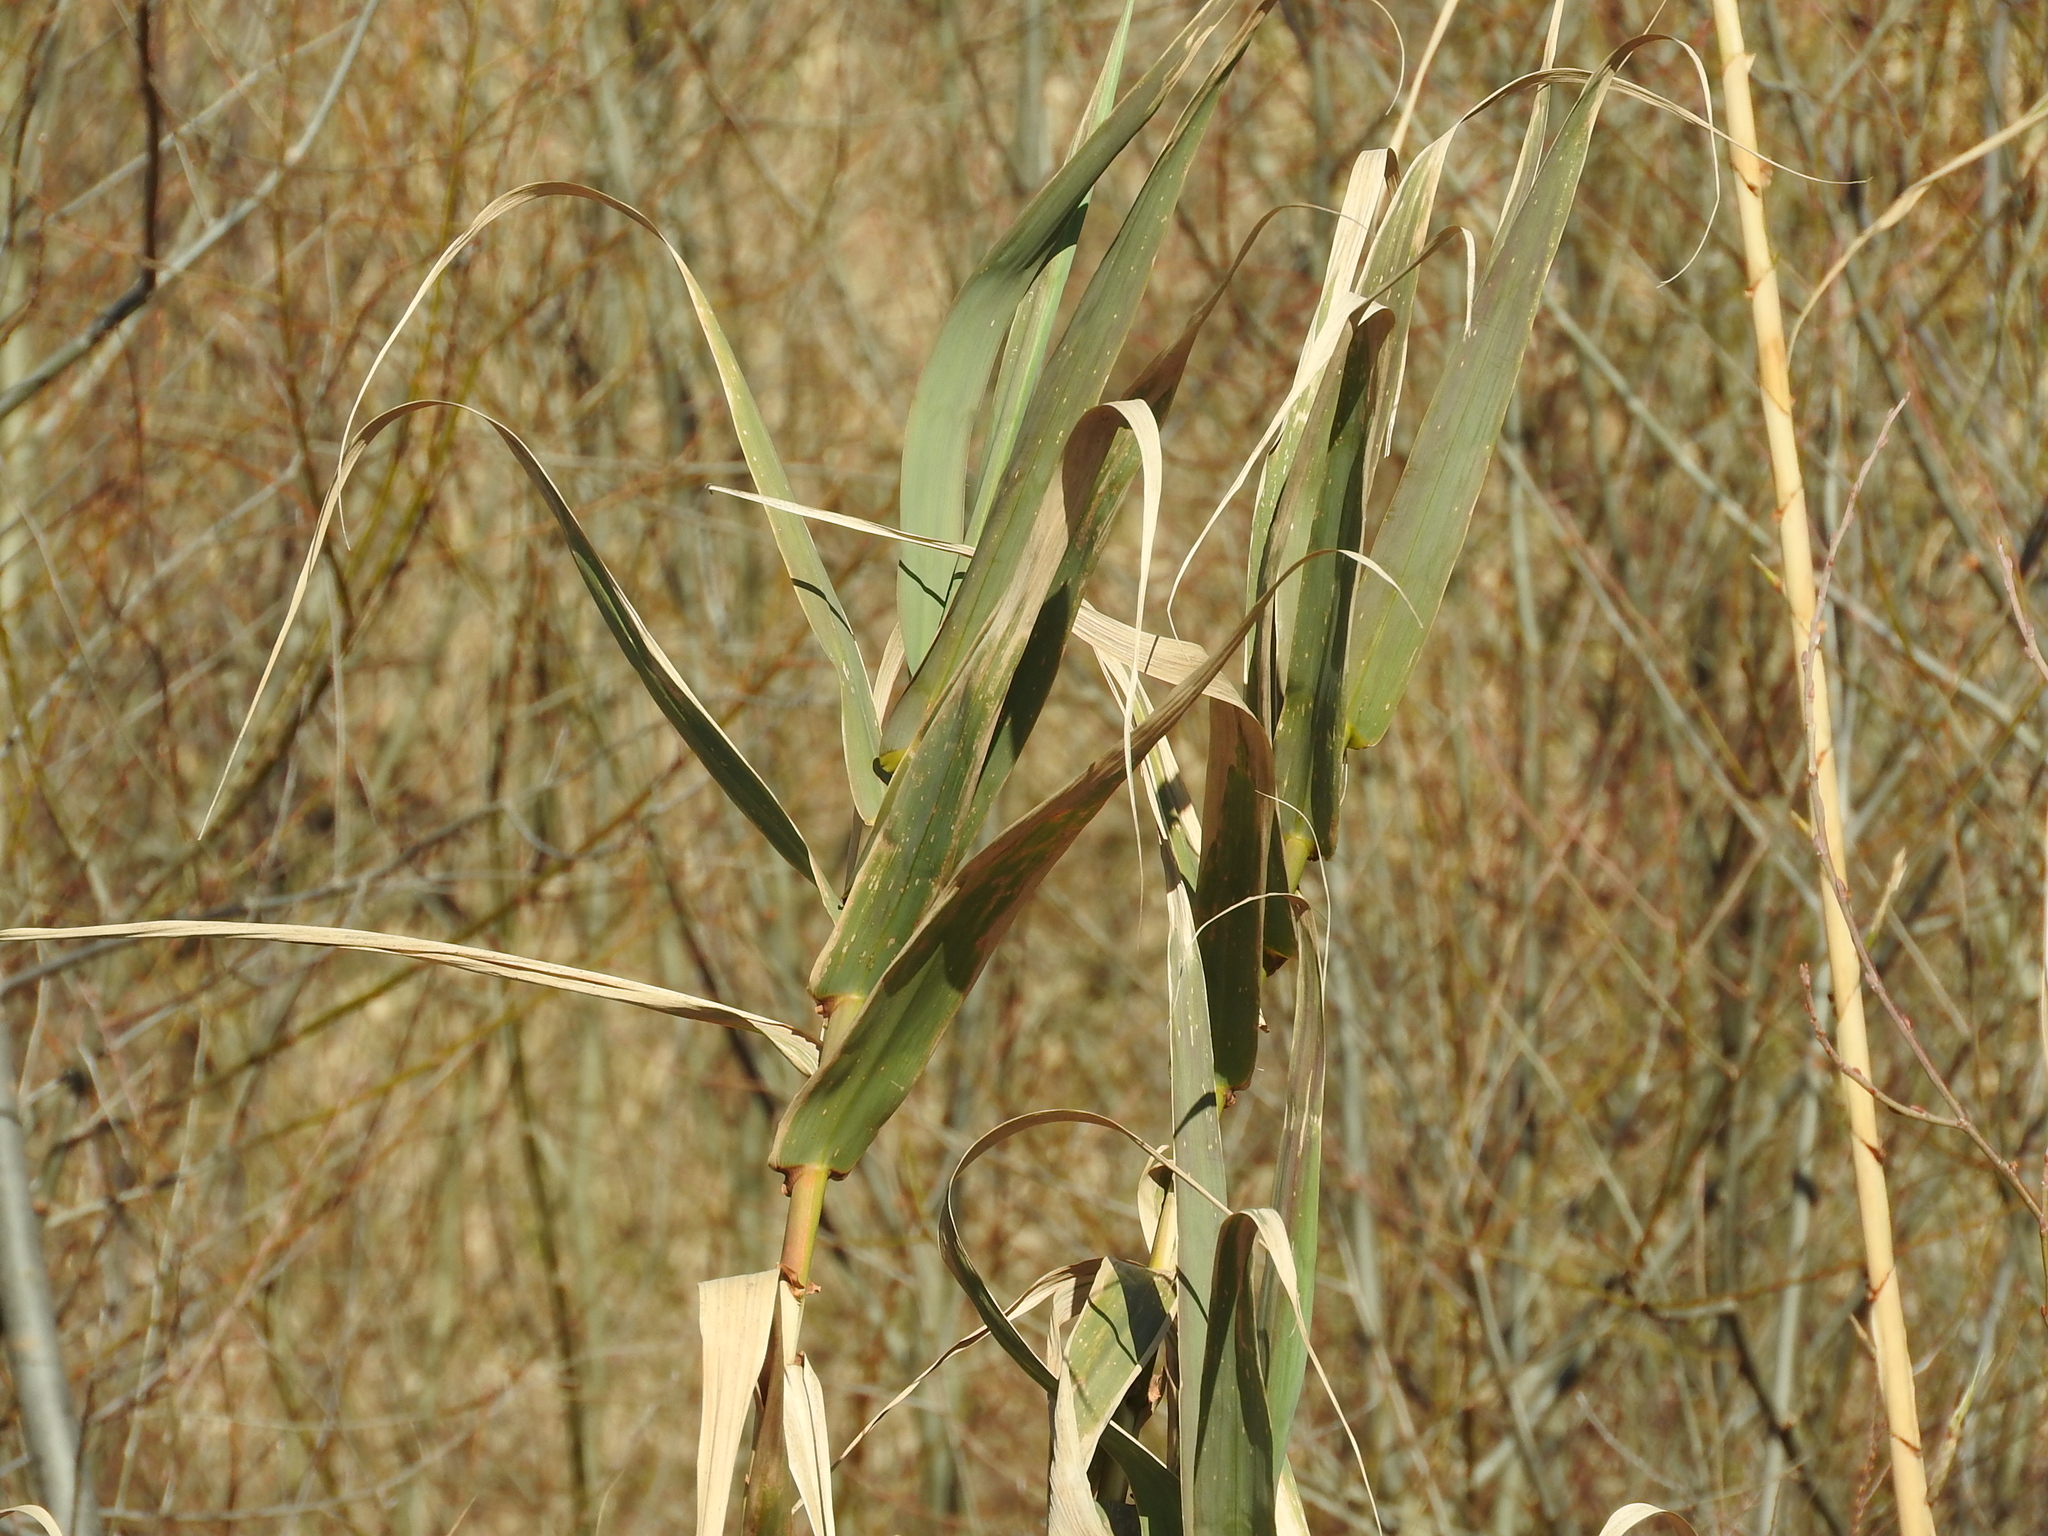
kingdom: Plantae
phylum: Tracheophyta
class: Liliopsida
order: Poales
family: Poaceae
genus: Arundo
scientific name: Arundo donax
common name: Giant reed
